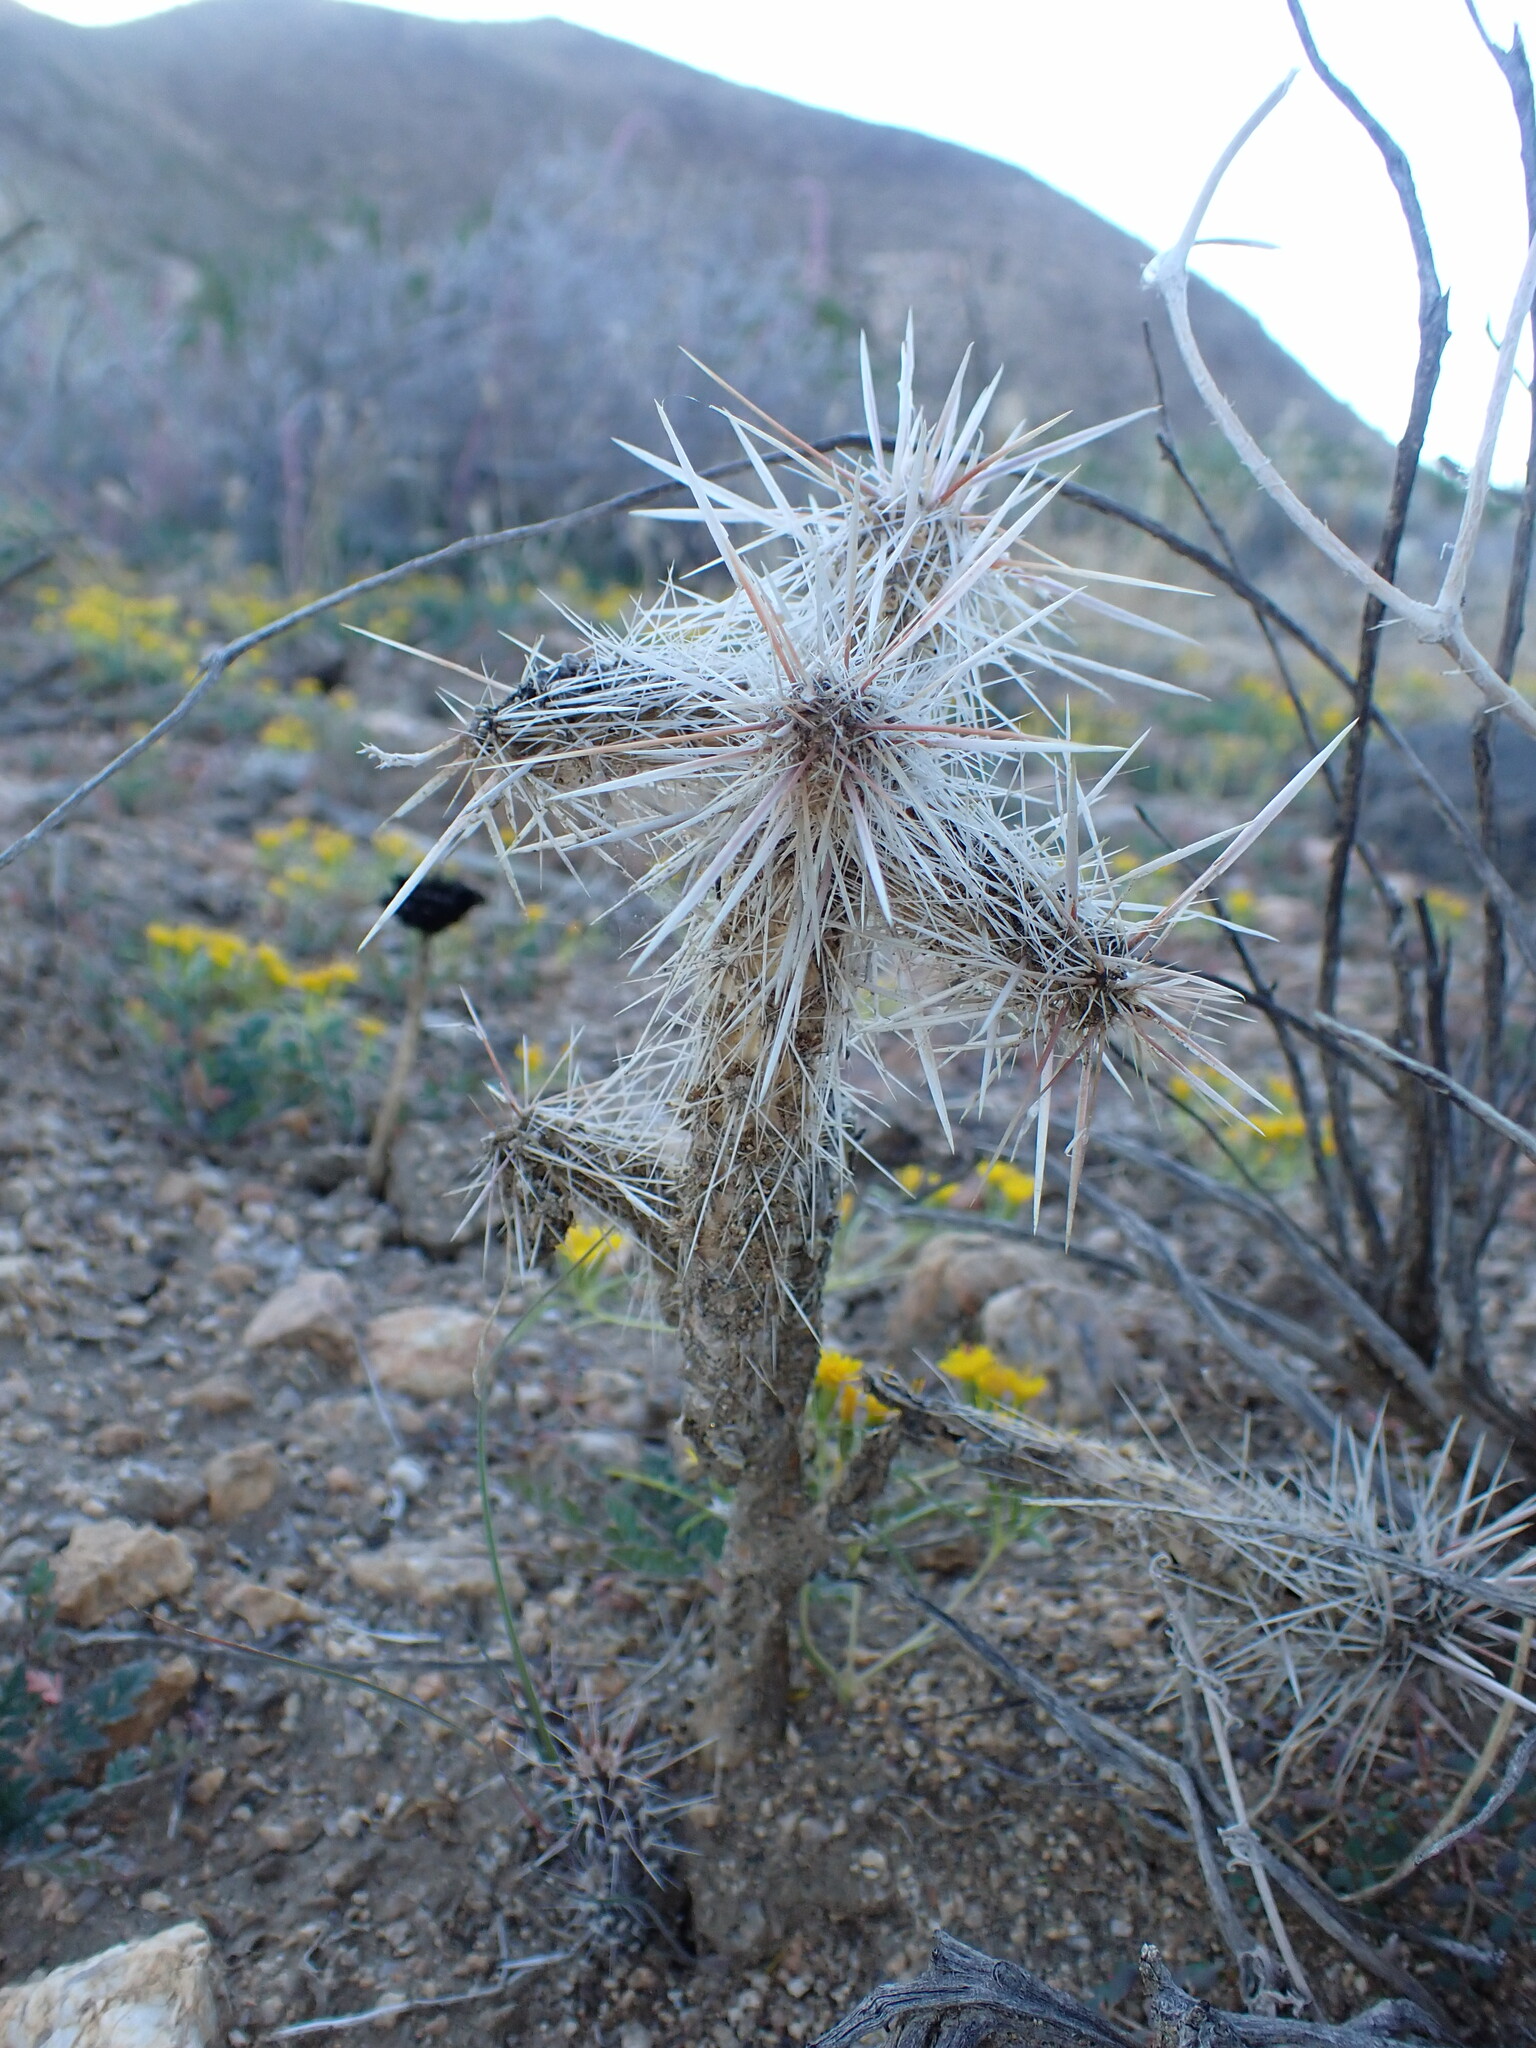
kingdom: Plantae
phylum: Tracheophyta
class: Magnoliopsida
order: Caryophyllales
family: Cactaceae
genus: Cylindropuntia
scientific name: Cylindropuntia echinocarpa
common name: Ground cholla
